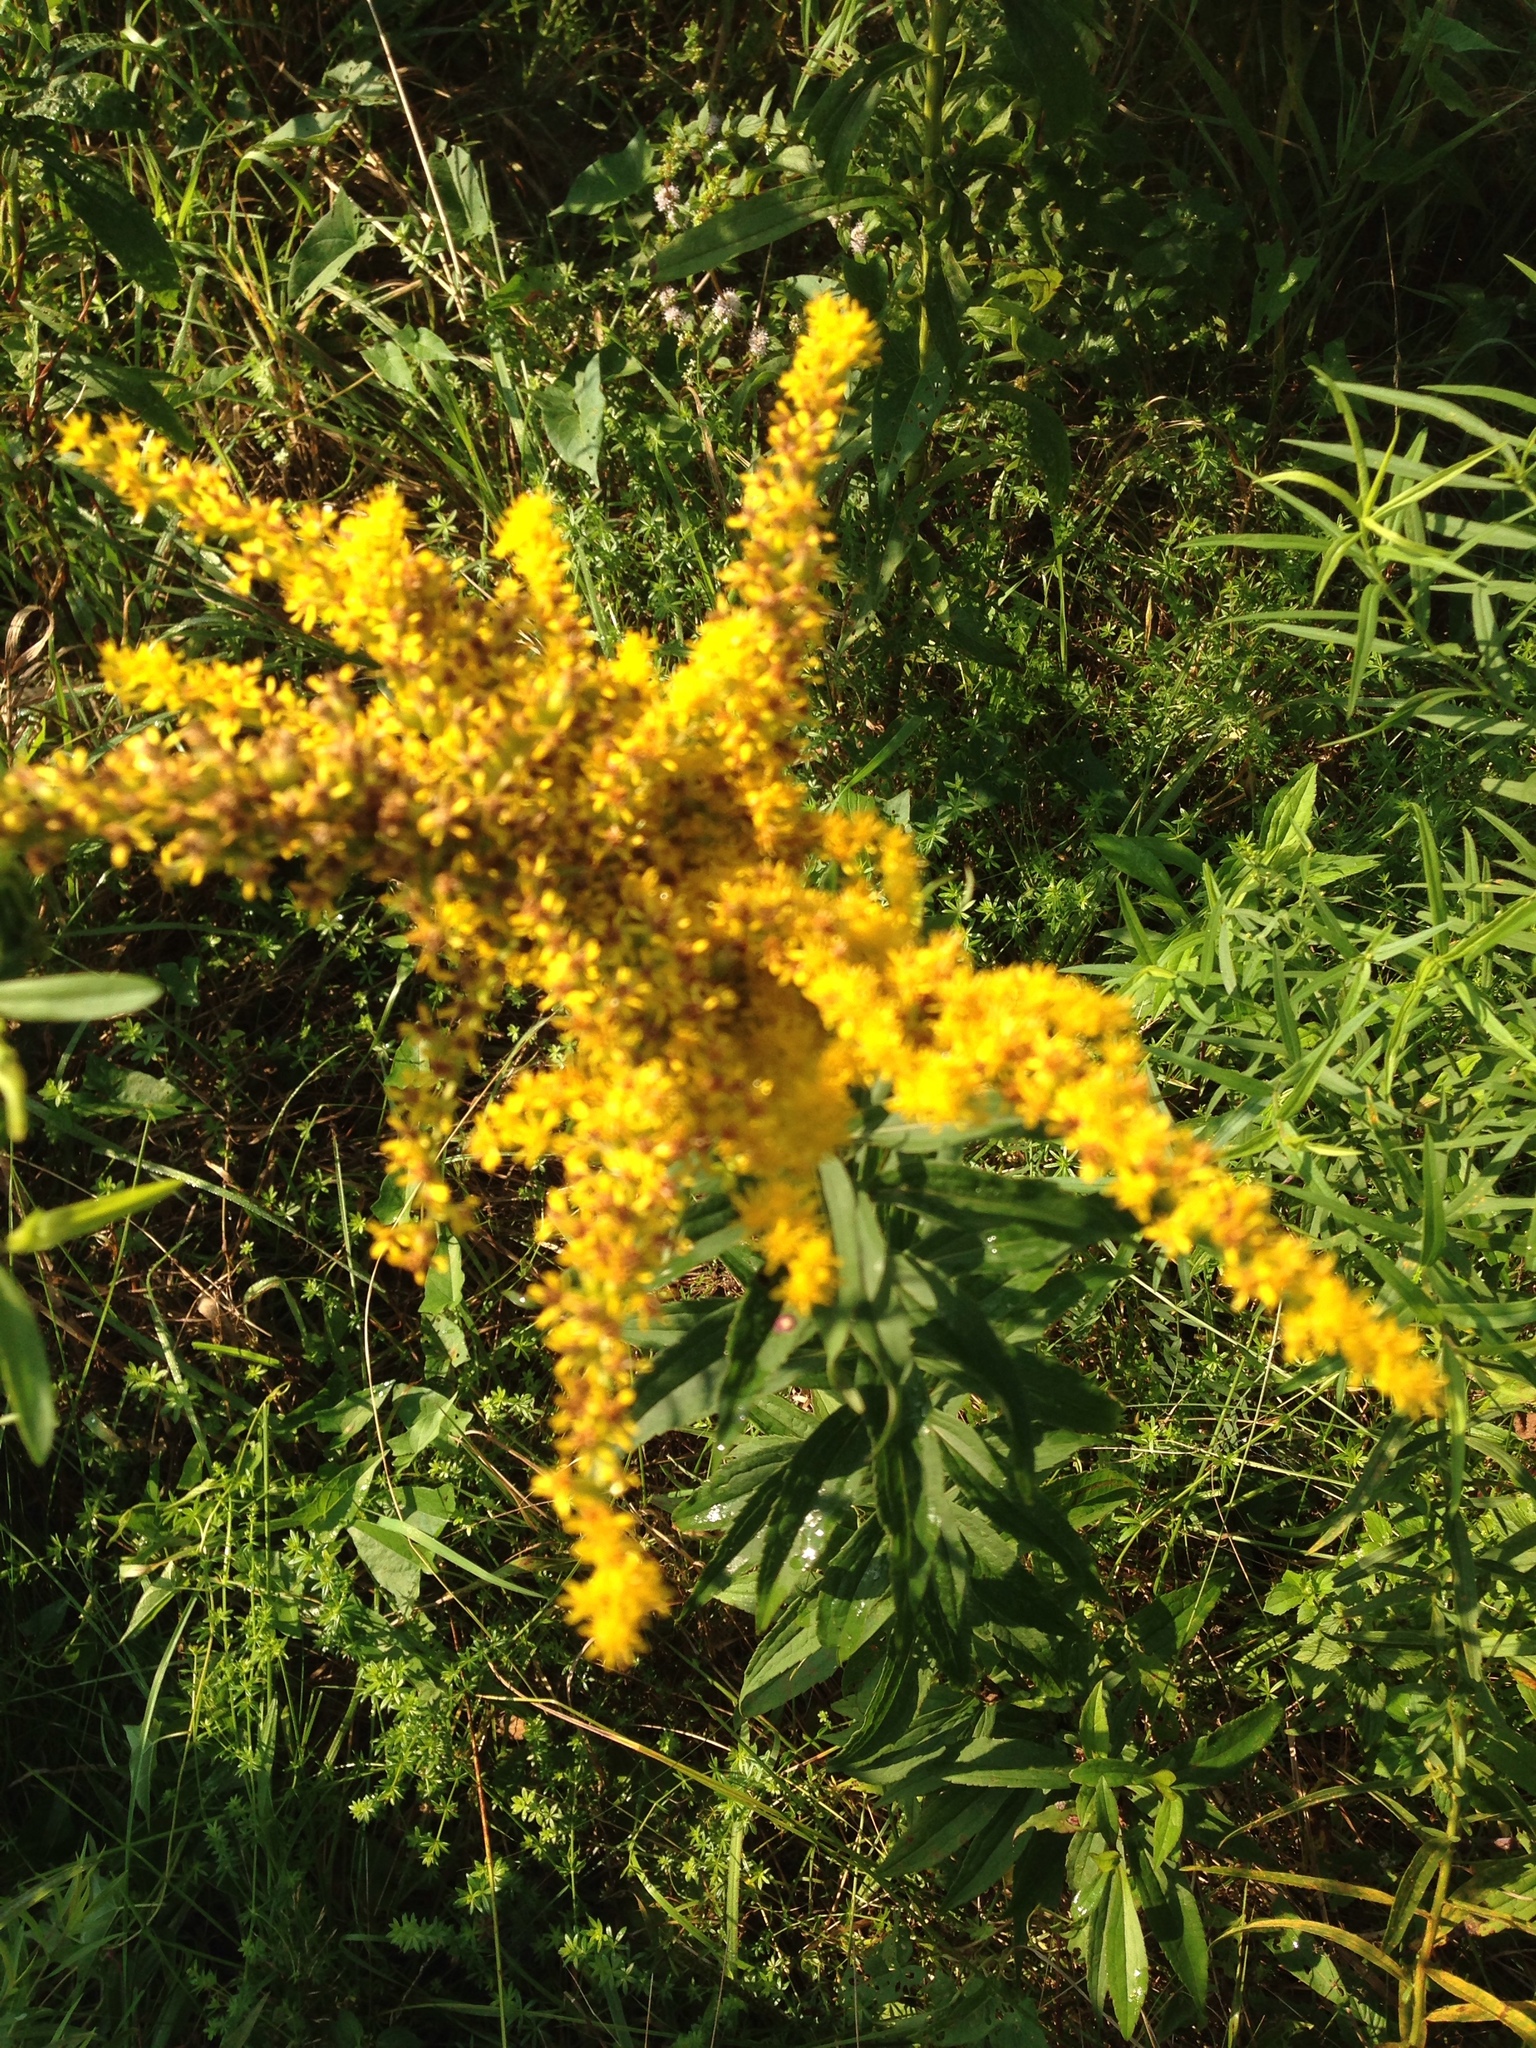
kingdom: Plantae
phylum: Tracheophyta
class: Magnoliopsida
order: Asterales
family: Asteraceae
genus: Solidago
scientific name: Solidago gigantea
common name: Giant goldenrod
